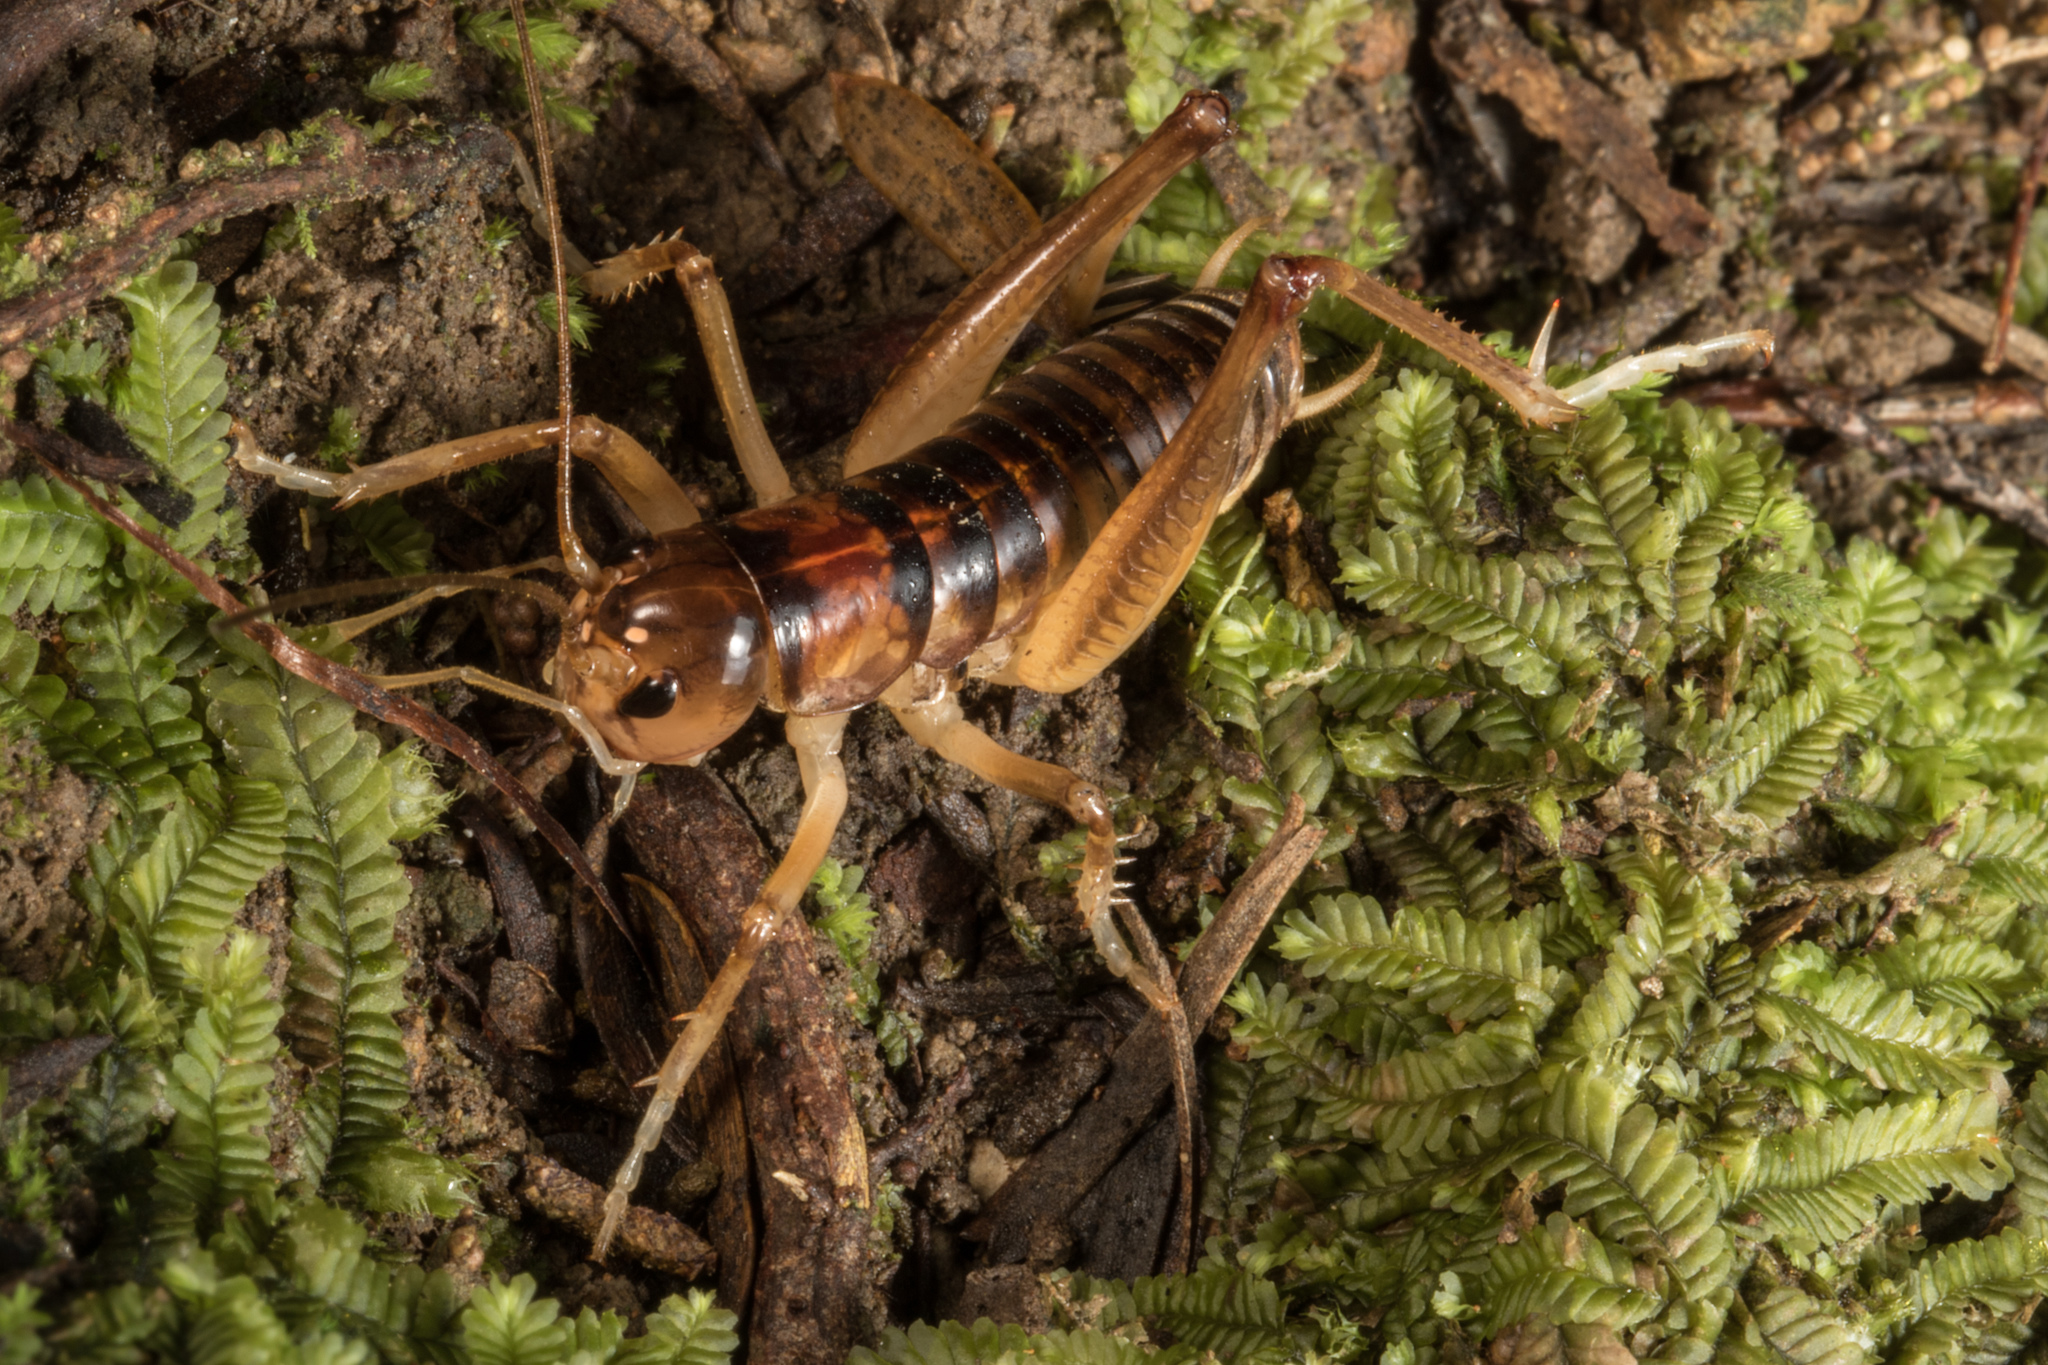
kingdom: Animalia
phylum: Arthropoda
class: Insecta
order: Orthoptera
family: Anostostomatidae
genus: Hemiandrus
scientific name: Hemiandrus pallitarsis
